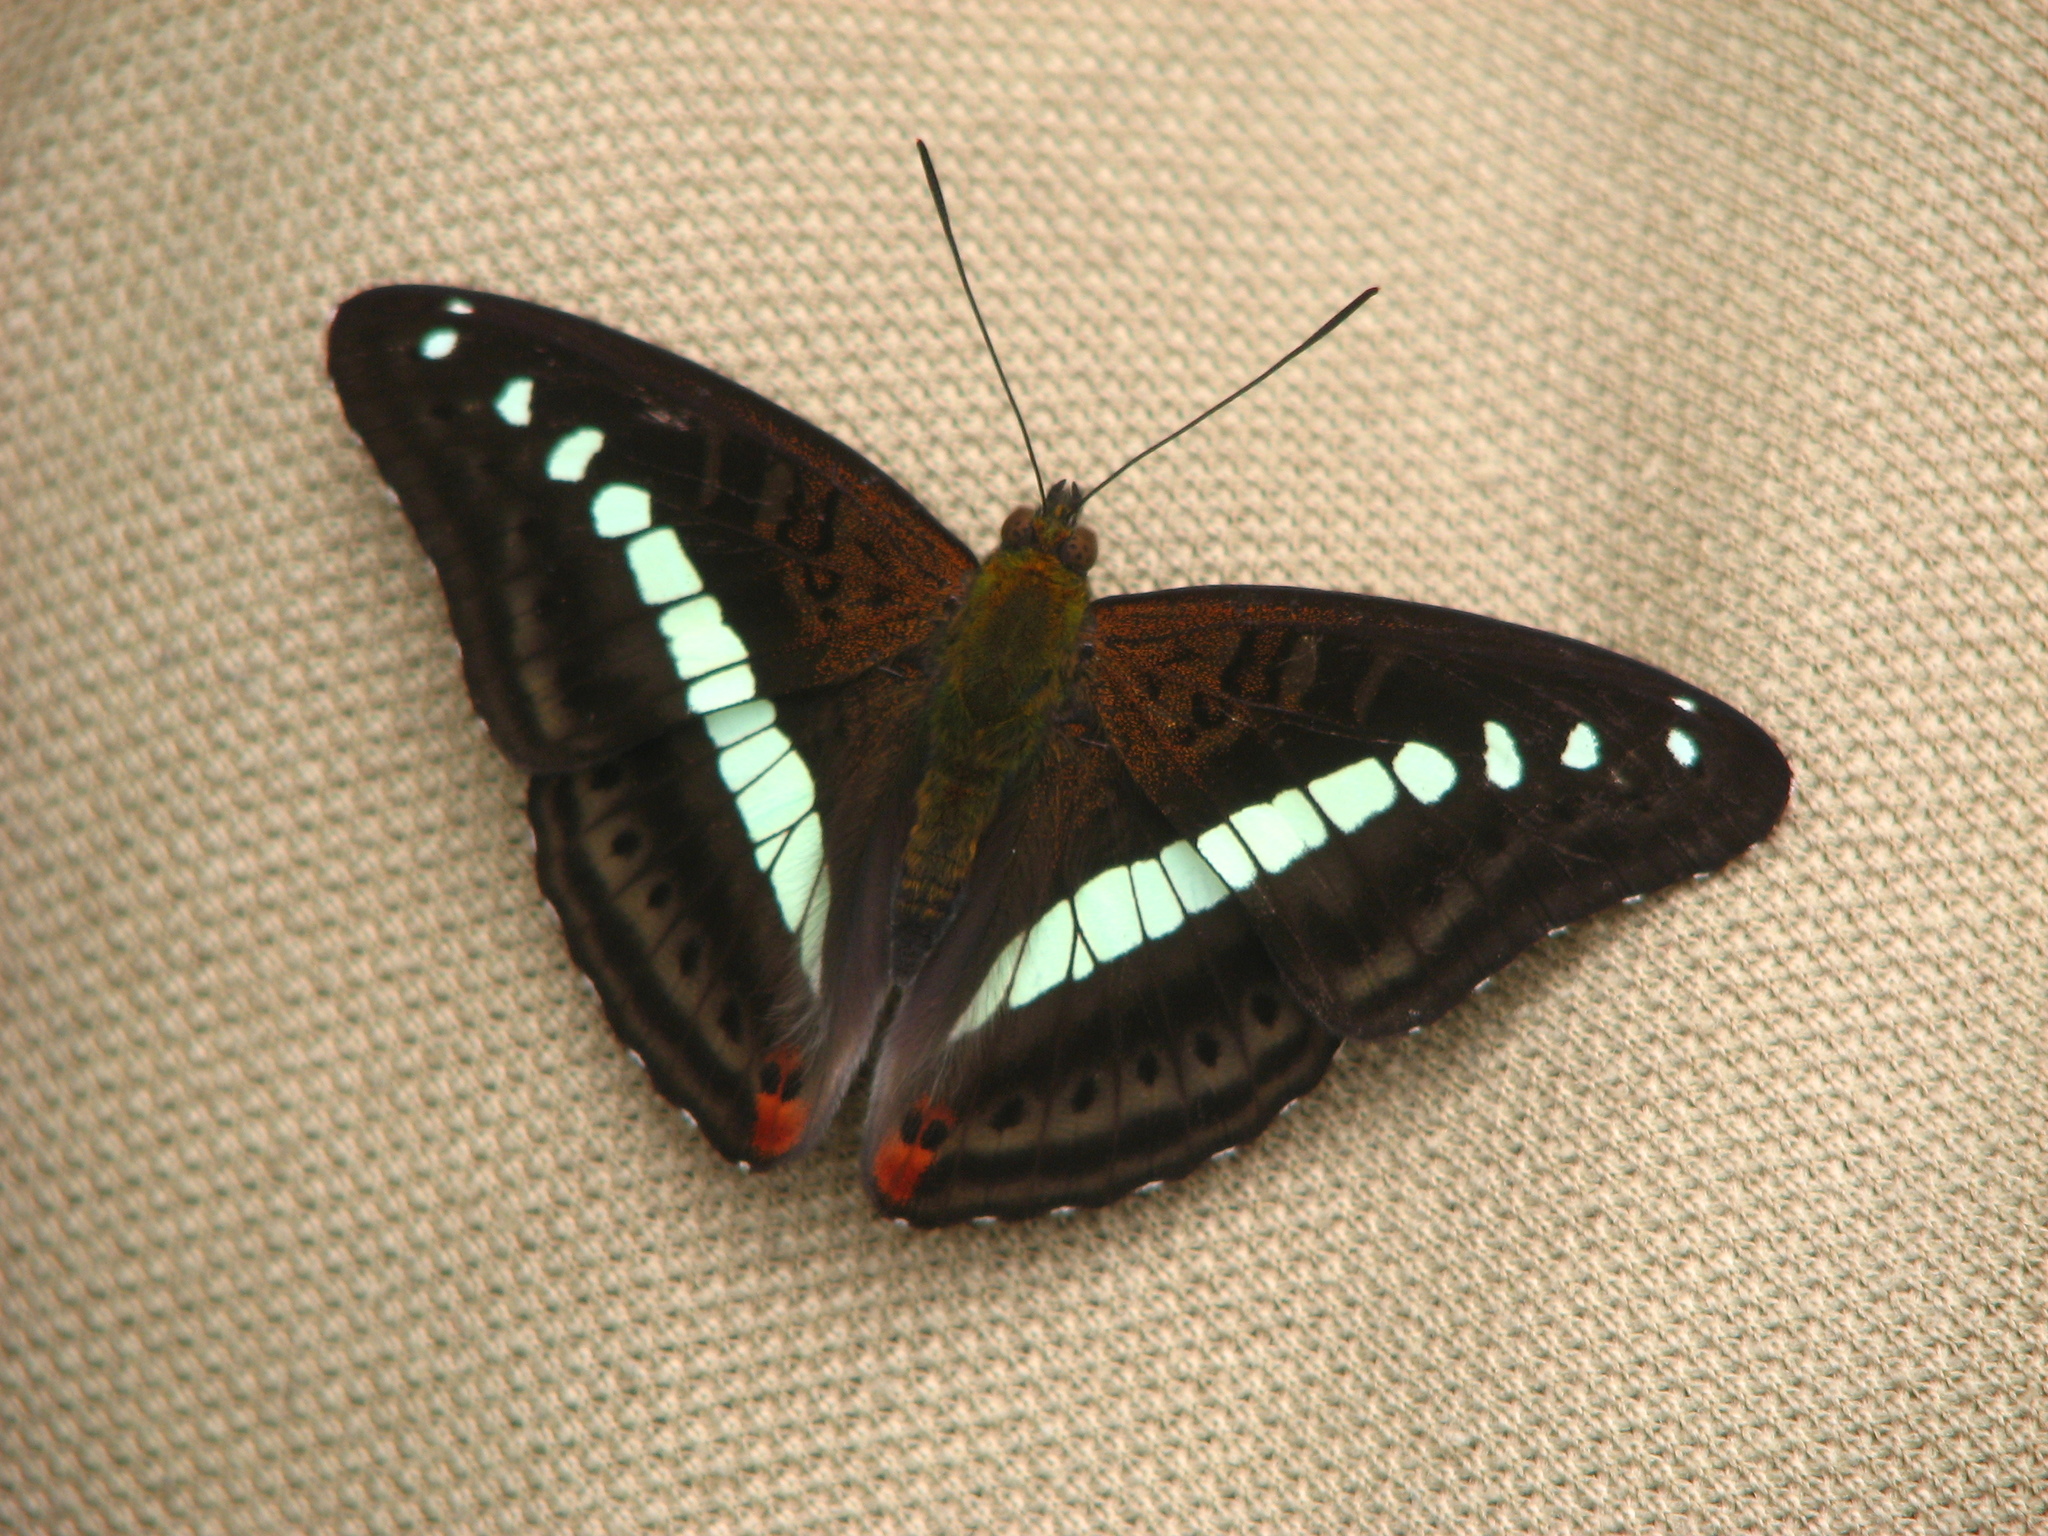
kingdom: Animalia
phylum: Arthropoda
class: Insecta
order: Lepidoptera
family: Nymphalidae
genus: Limenitis
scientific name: Limenitis Sumalia daraxa
